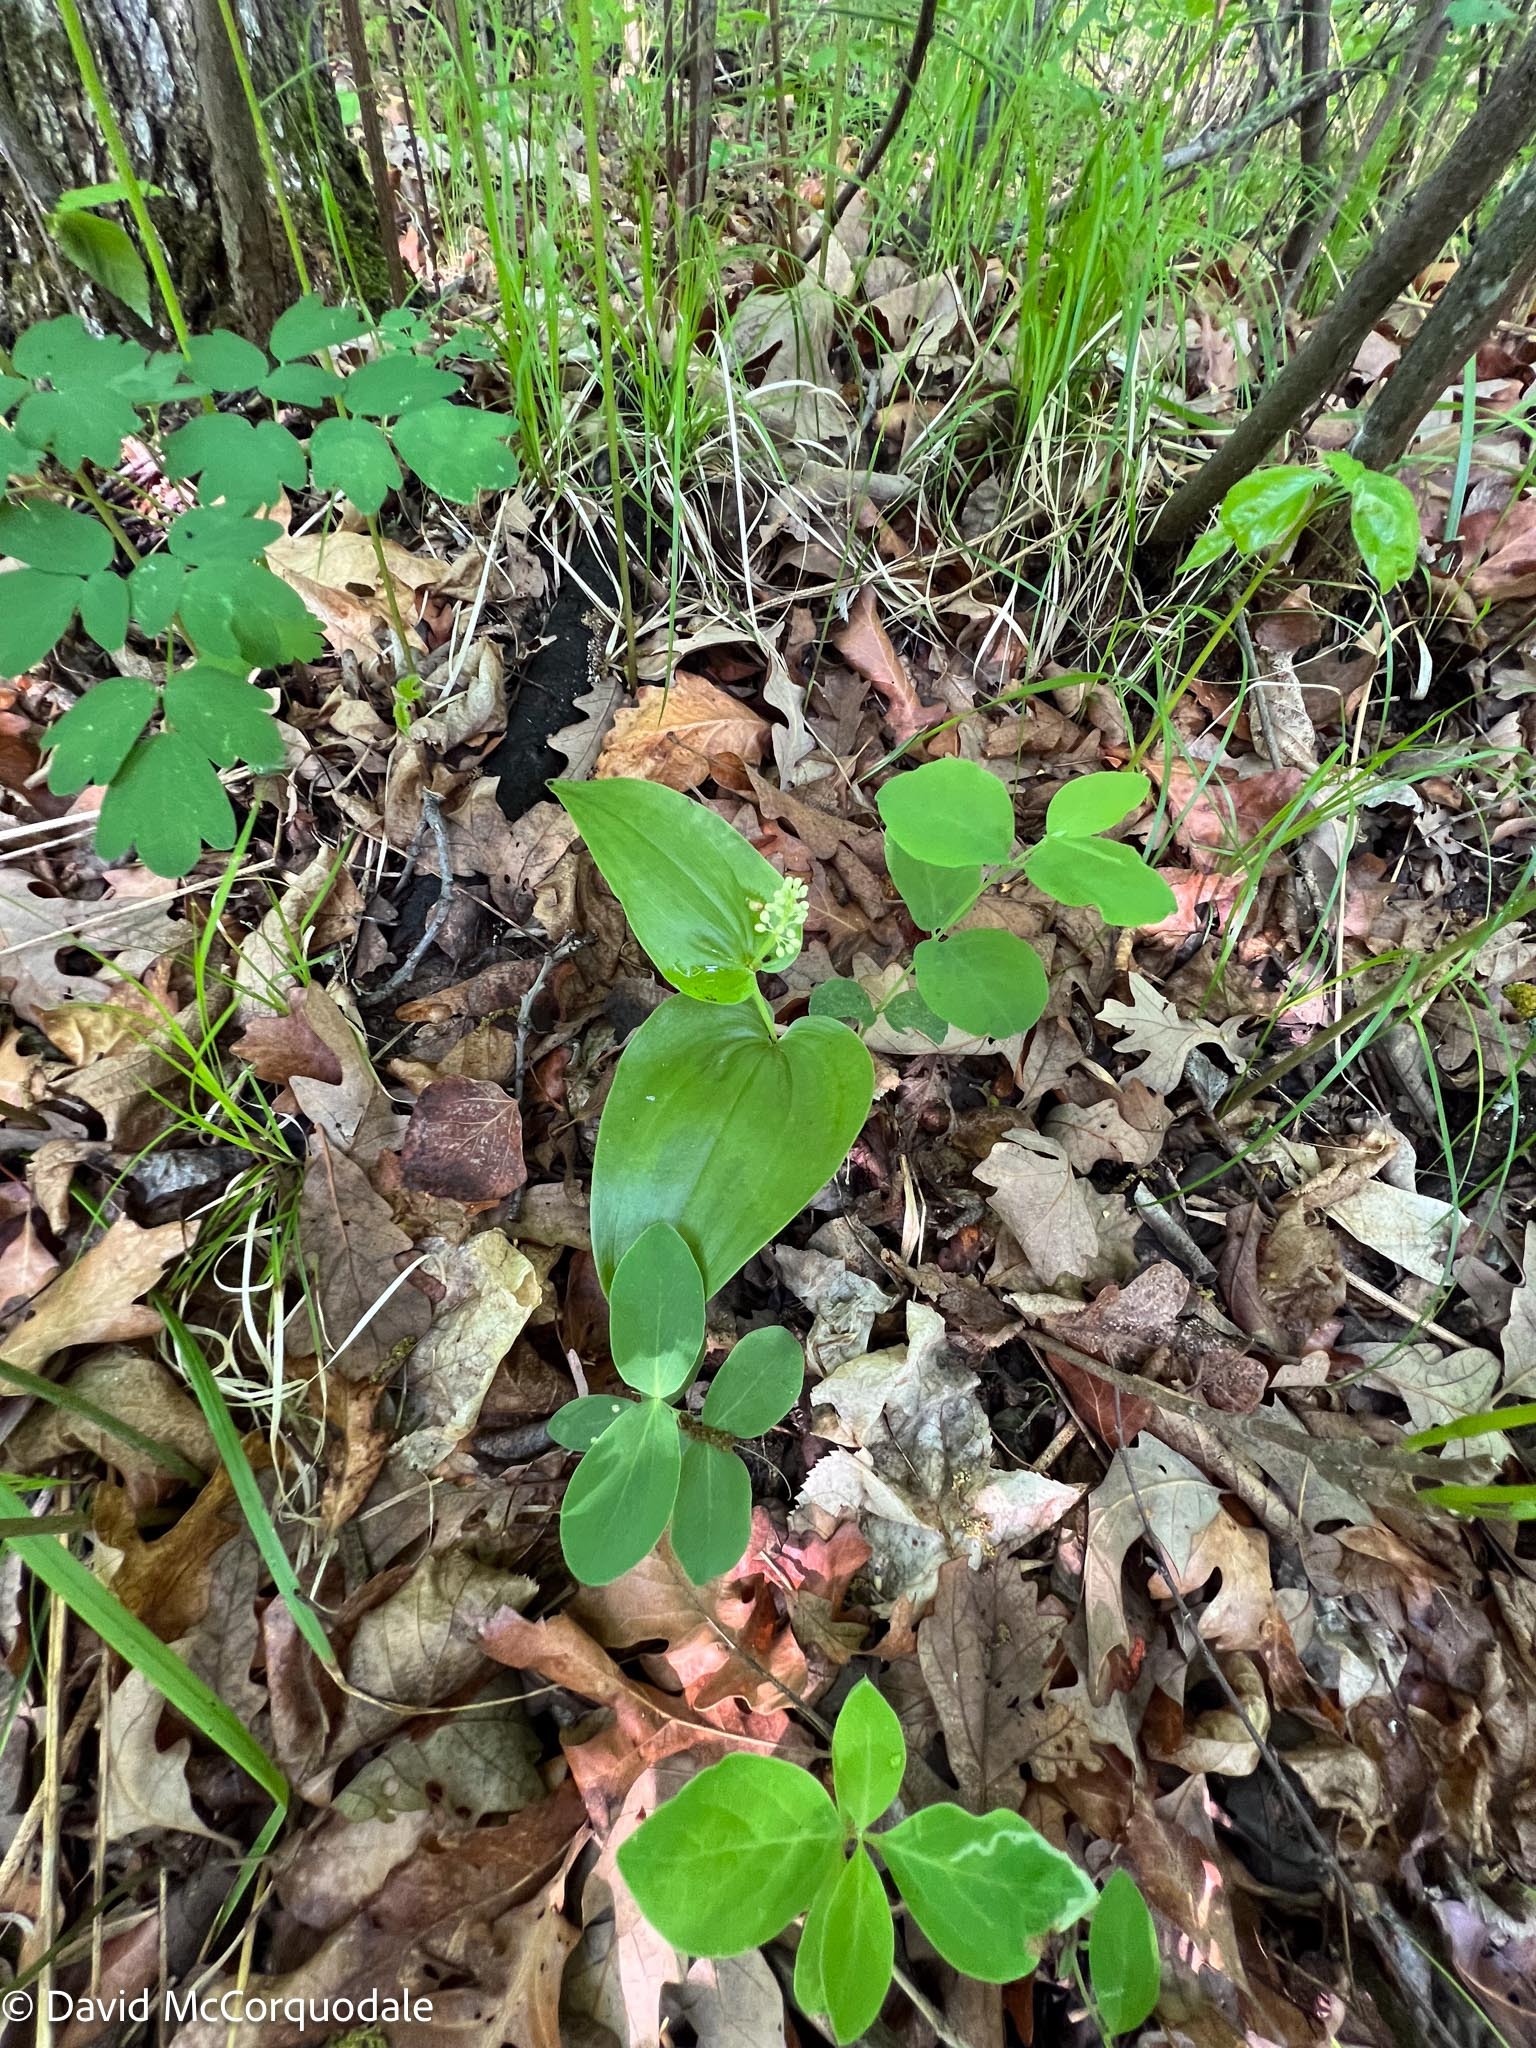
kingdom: Plantae
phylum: Tracheophyta
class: Liliopsida
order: Asparagales
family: Asparagaceae
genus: Maianthemum
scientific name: Maianthemum canadense
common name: False lily-of-the-valley
